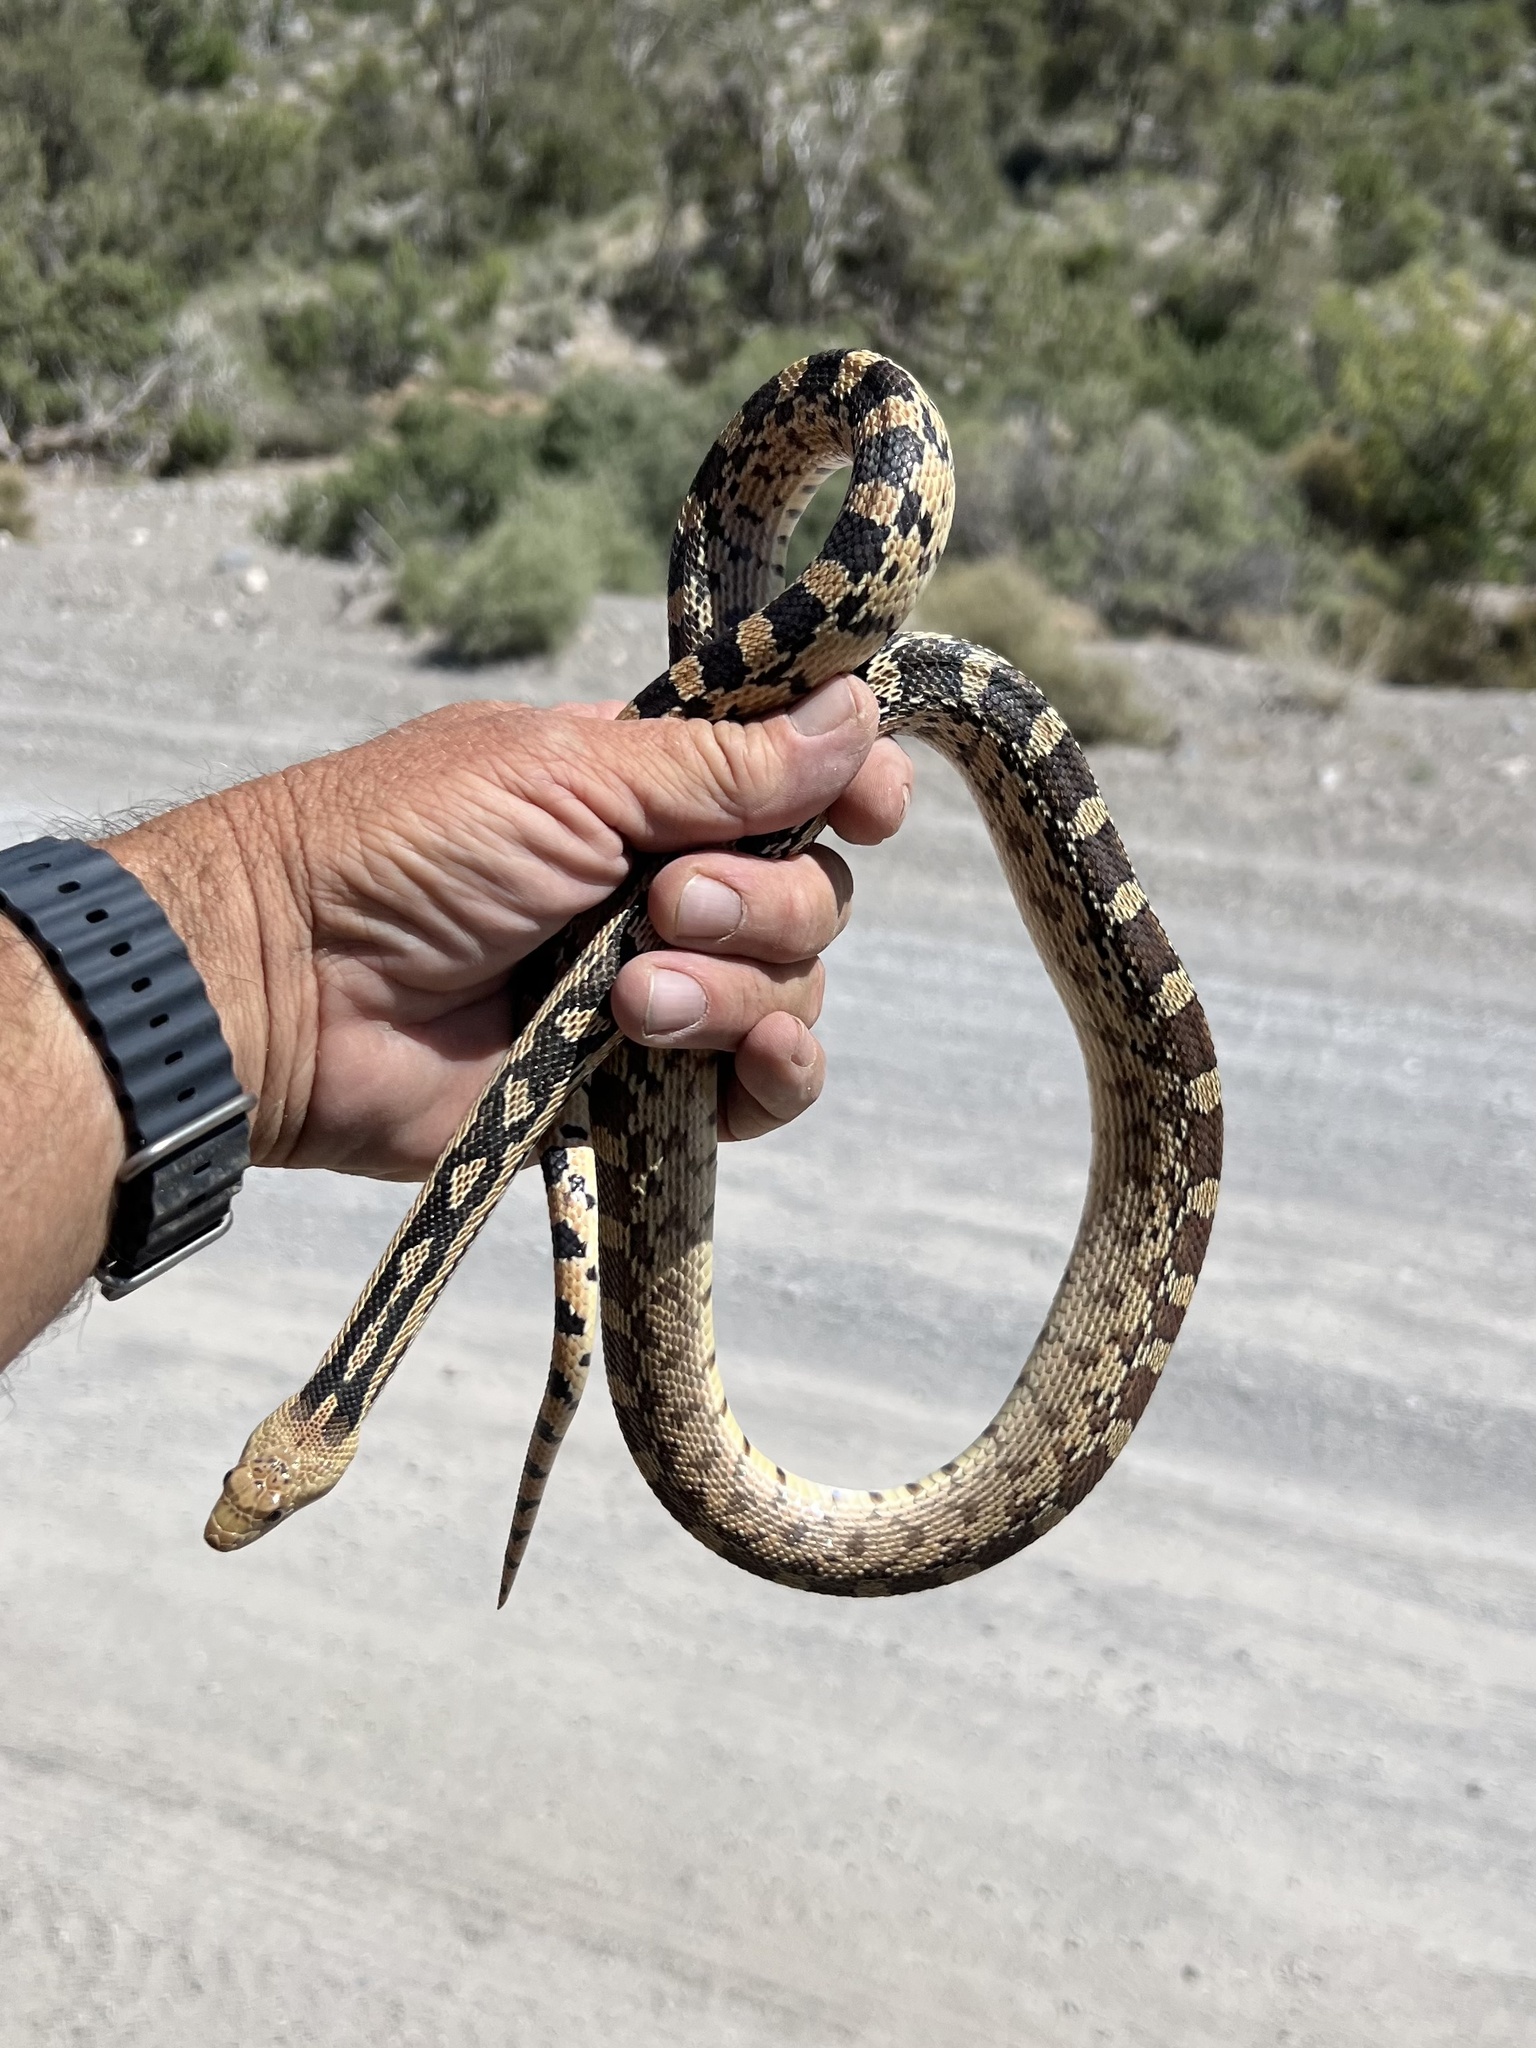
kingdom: Animalia
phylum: Chordata
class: Squamata
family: Colubridae
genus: Pituophis
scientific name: Pituophis catenifer
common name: Gopher snake
